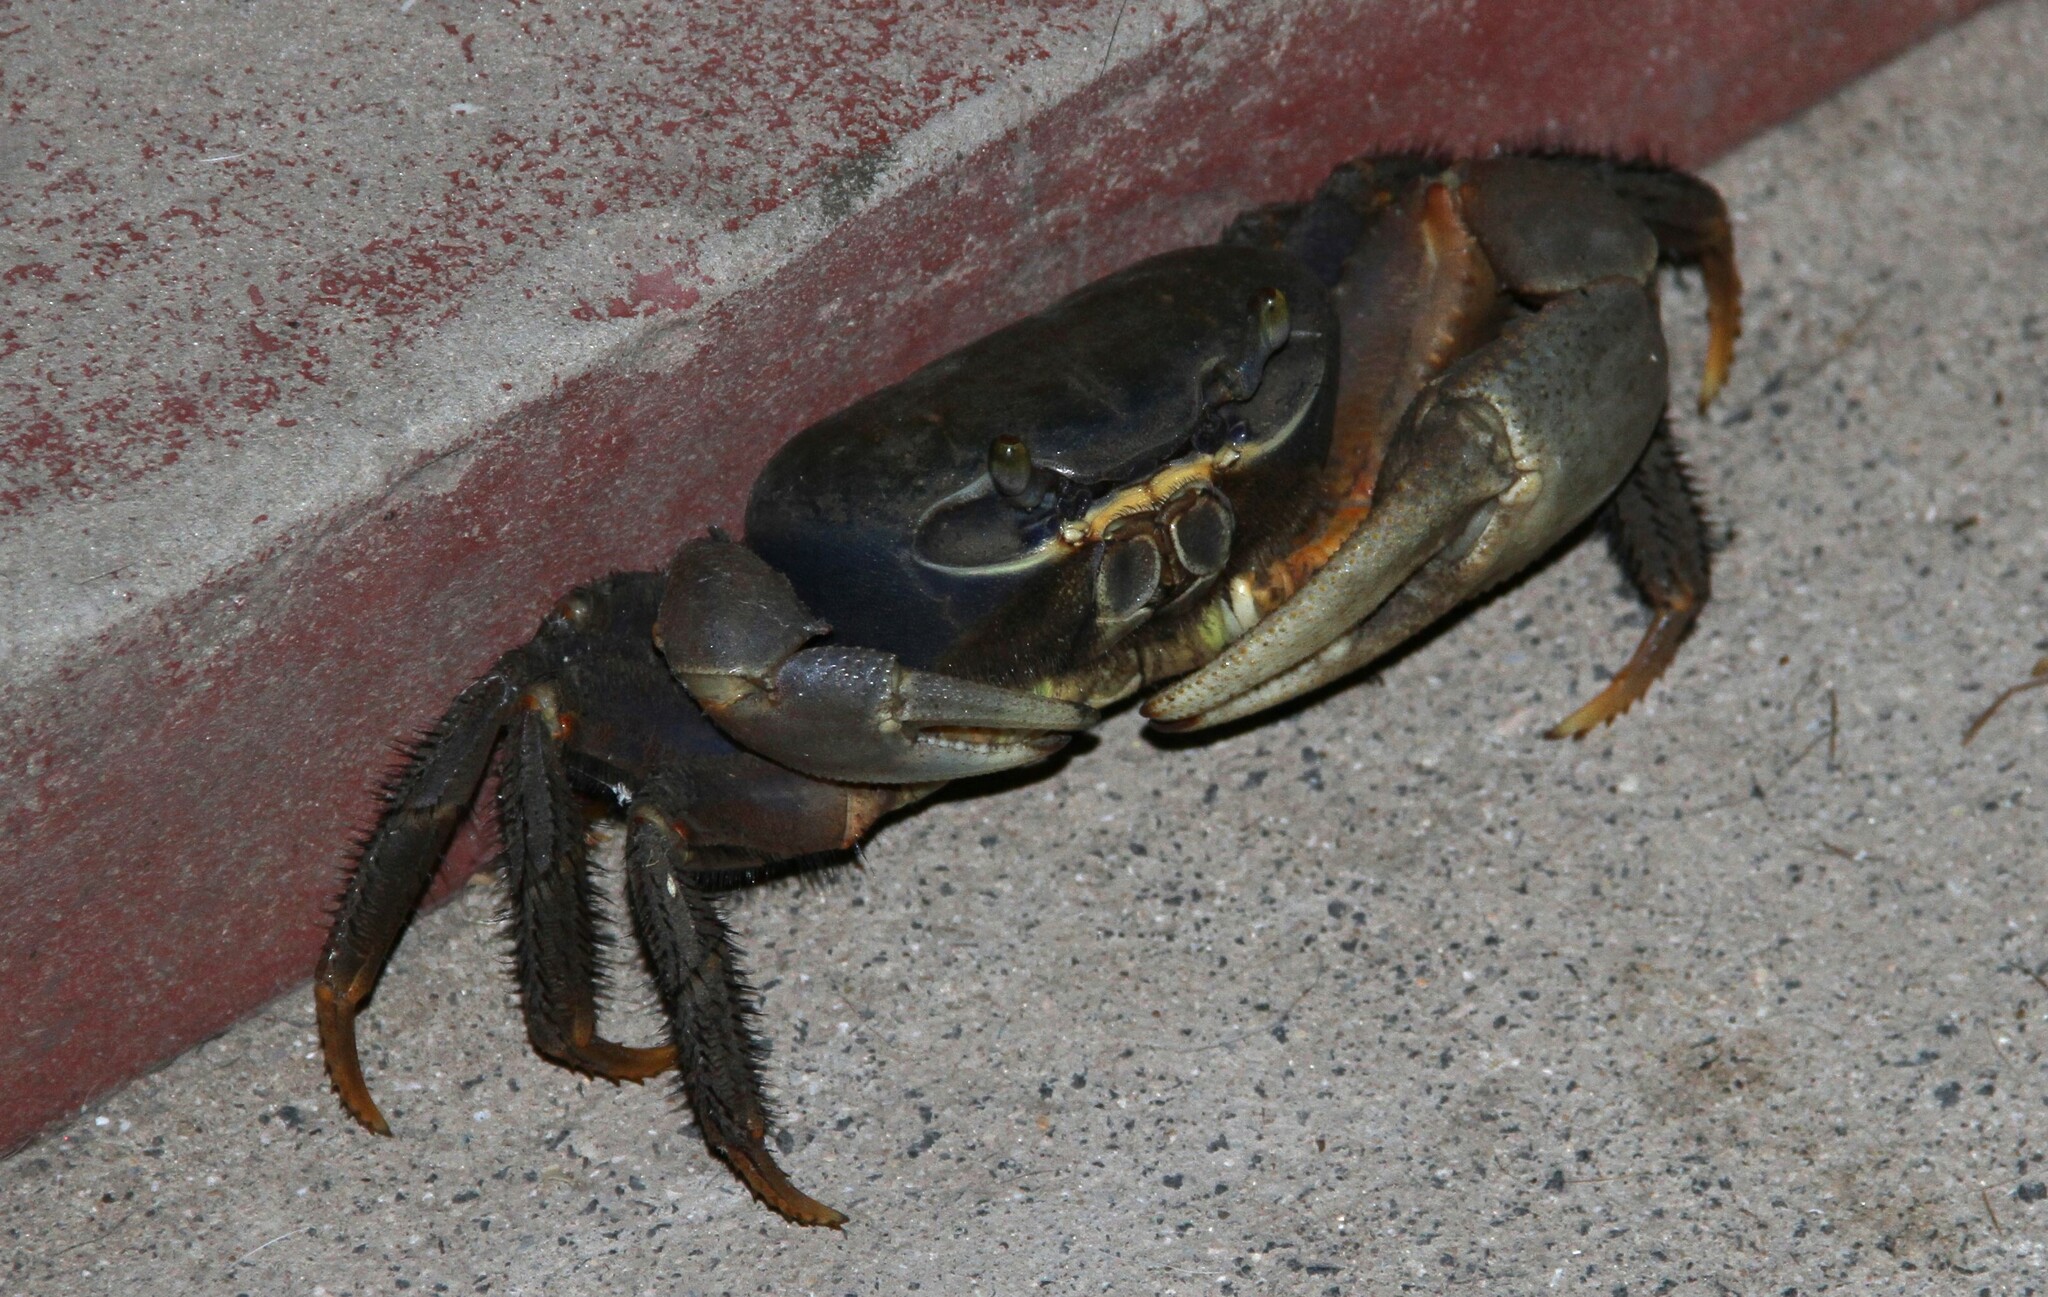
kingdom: Animalia
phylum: Arthropoda
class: Malacostraca
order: Decapoda
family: Gecarcinidae
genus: Cardisoma
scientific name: Cardisoma armatum
